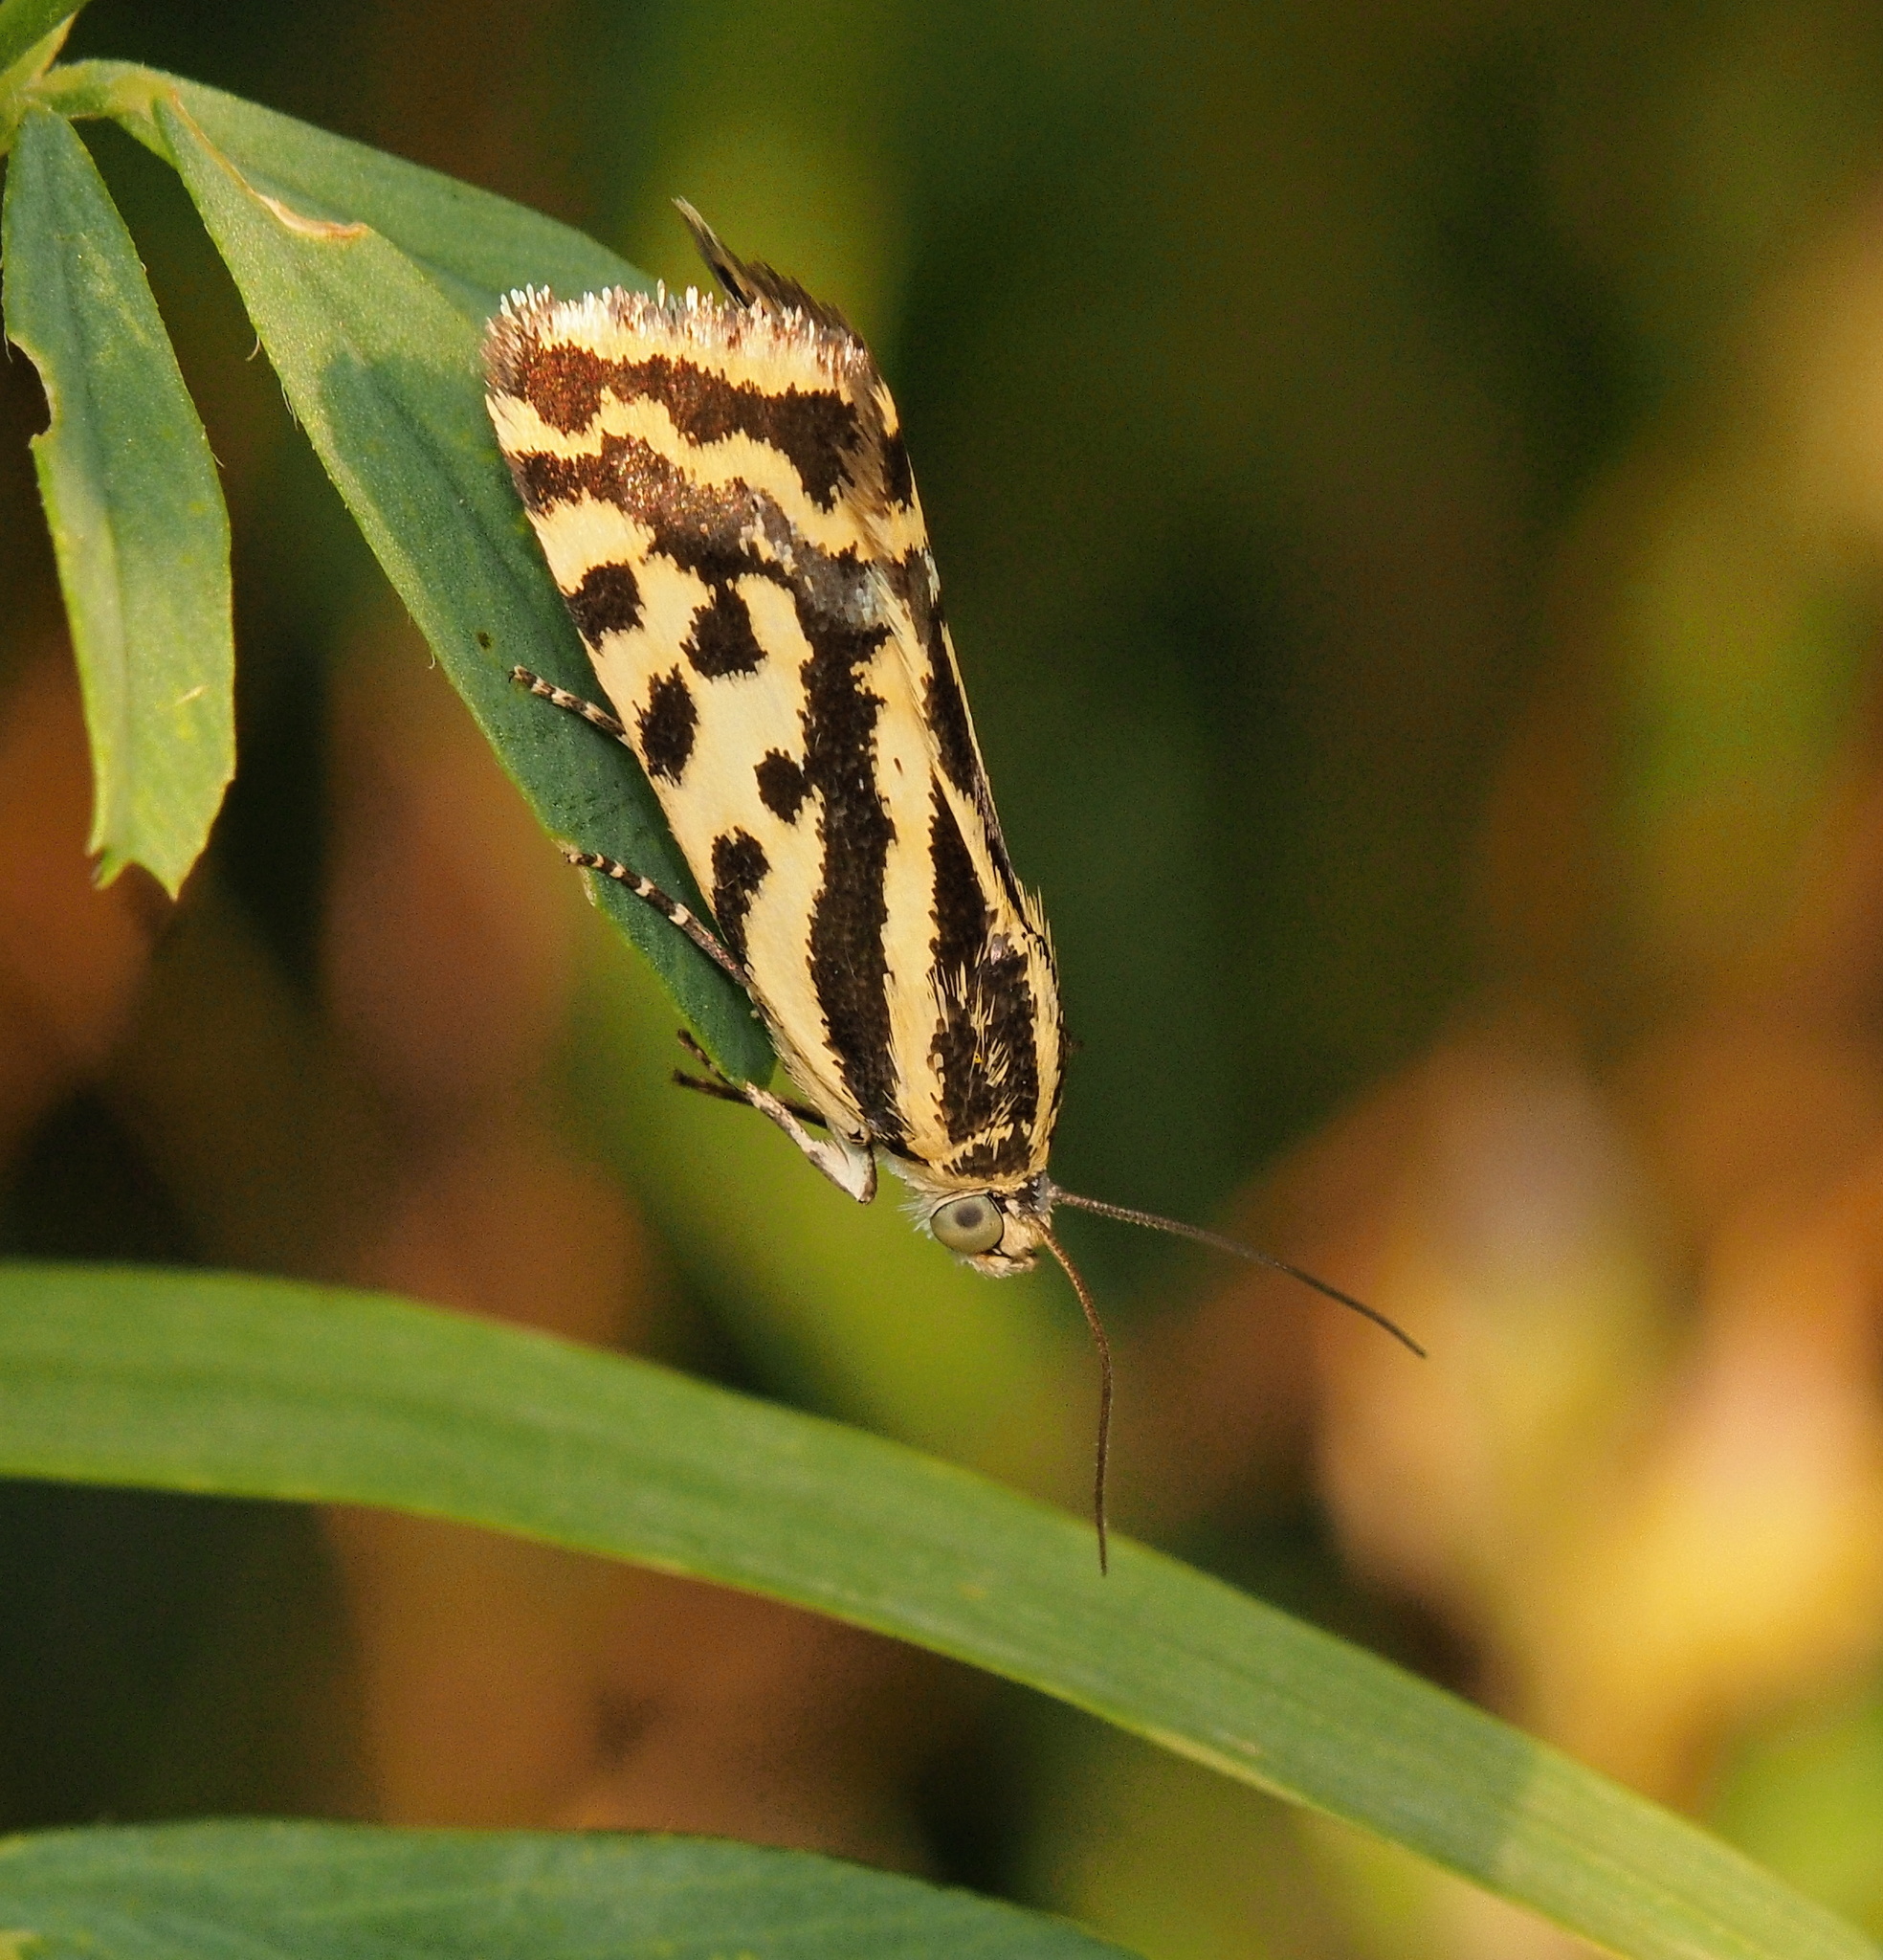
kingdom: Animalia
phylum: Arthropoda
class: Insecta
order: Lepidoptera
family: Noctuidae
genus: Acontia
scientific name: Acontia trabealis
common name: Spotted sulphur
